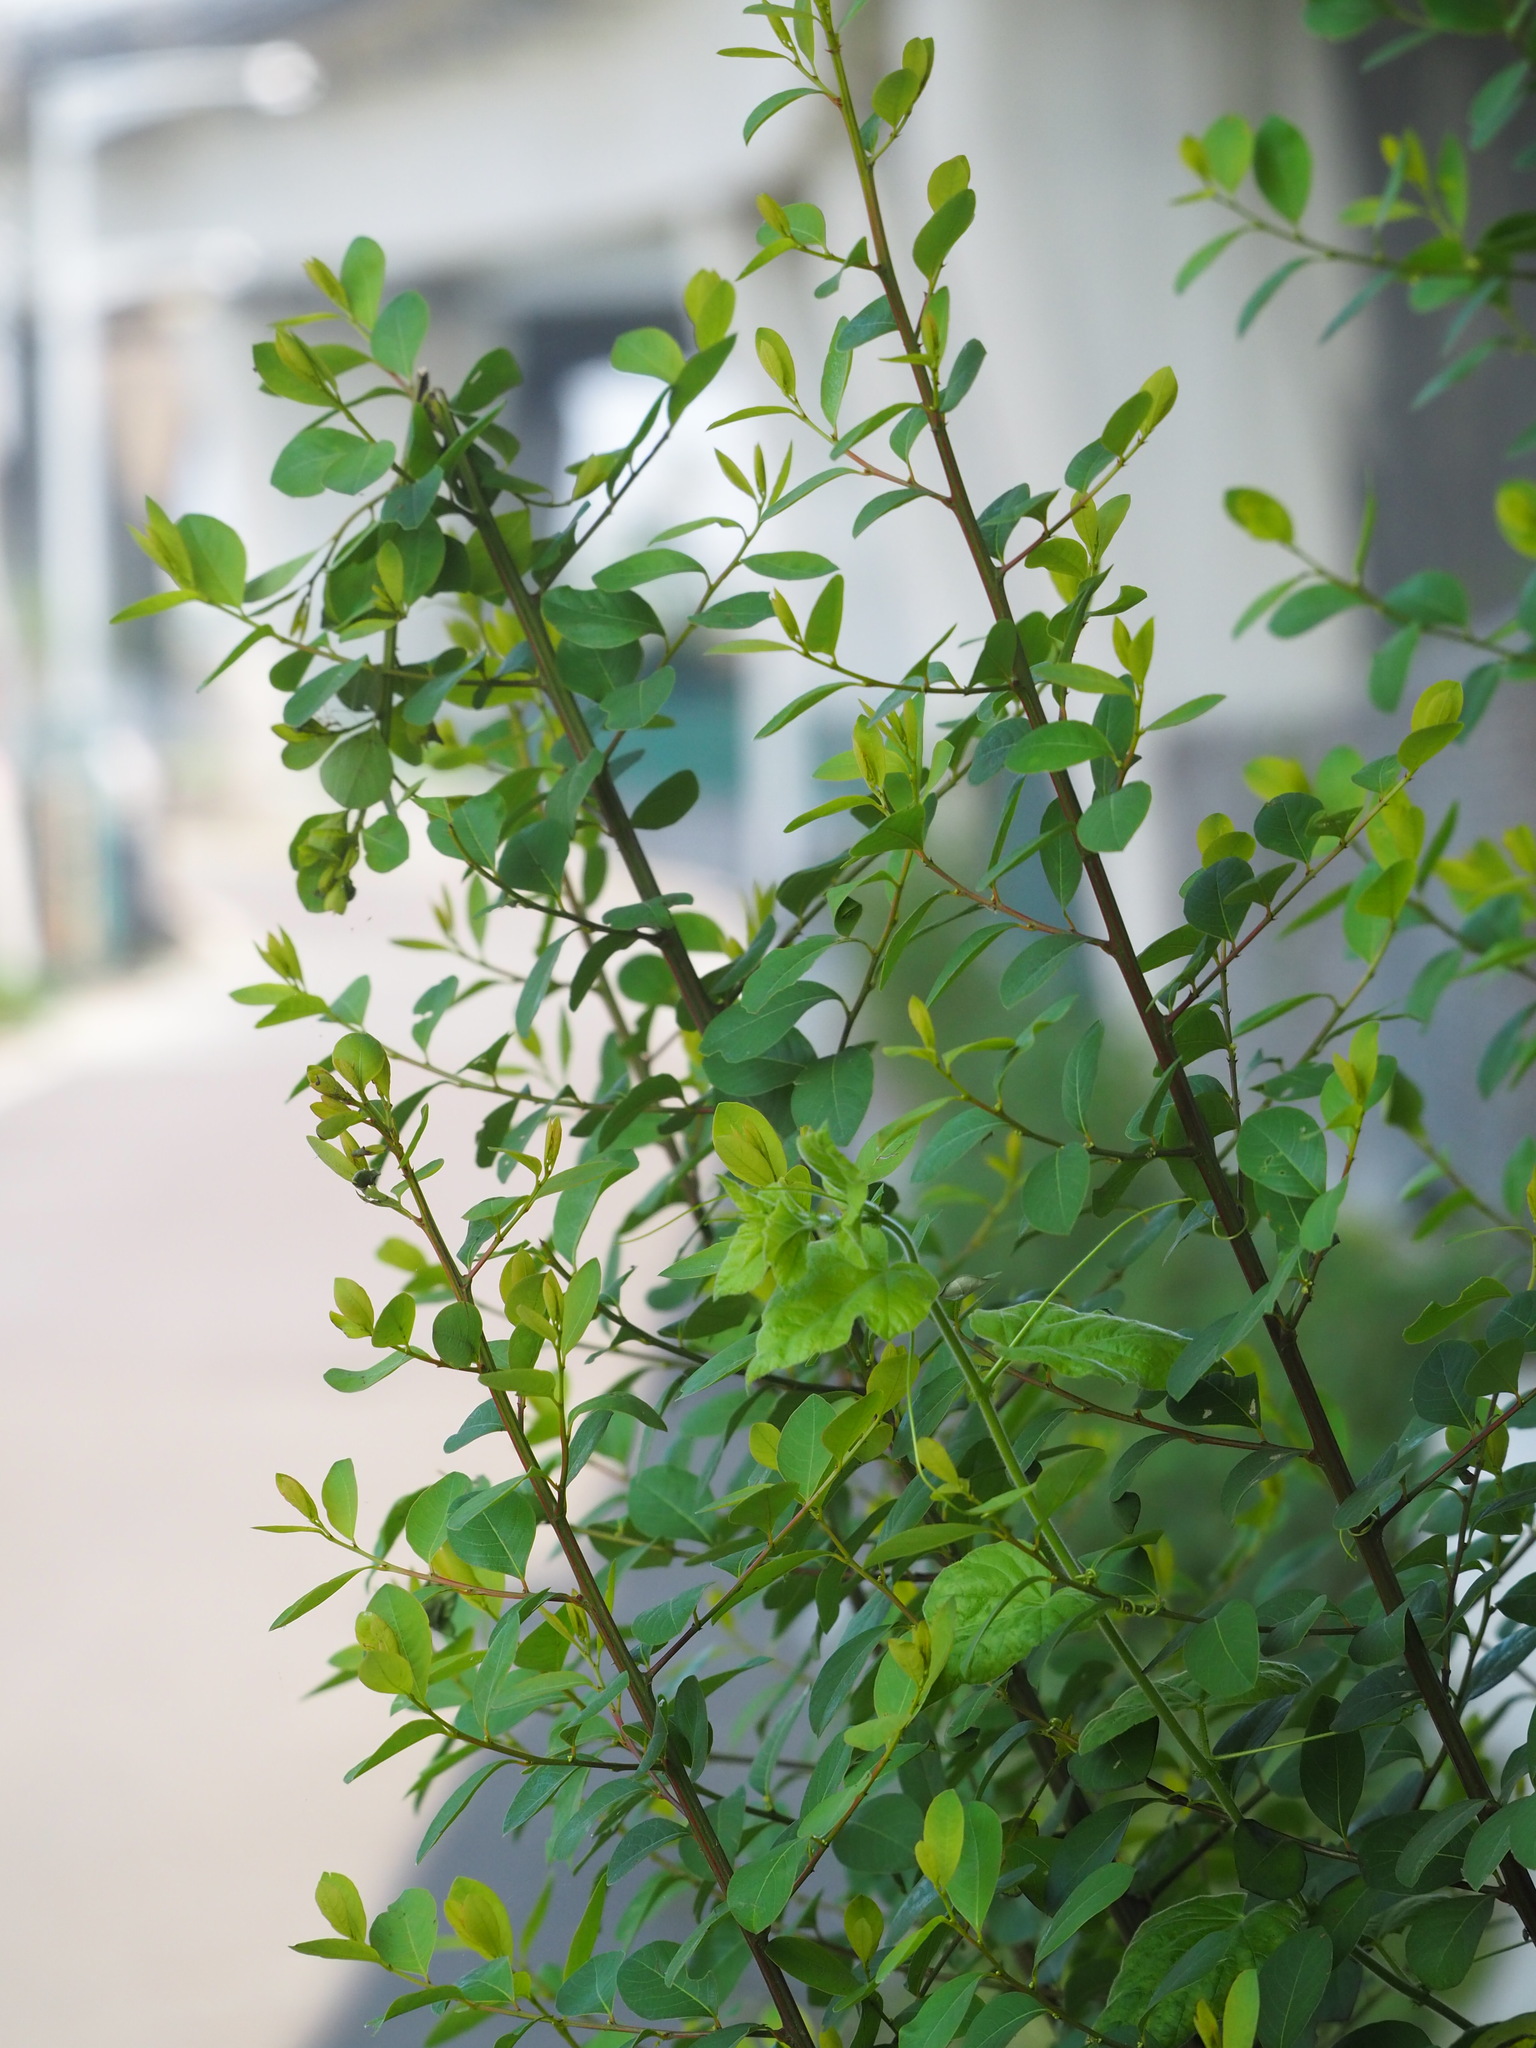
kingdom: Plantae
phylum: Tracheophyta
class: Magnoliopsida
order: Malpighiales
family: Phyllanthaceae
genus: Flueggea
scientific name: Flueggea virosa
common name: Common bushweed
